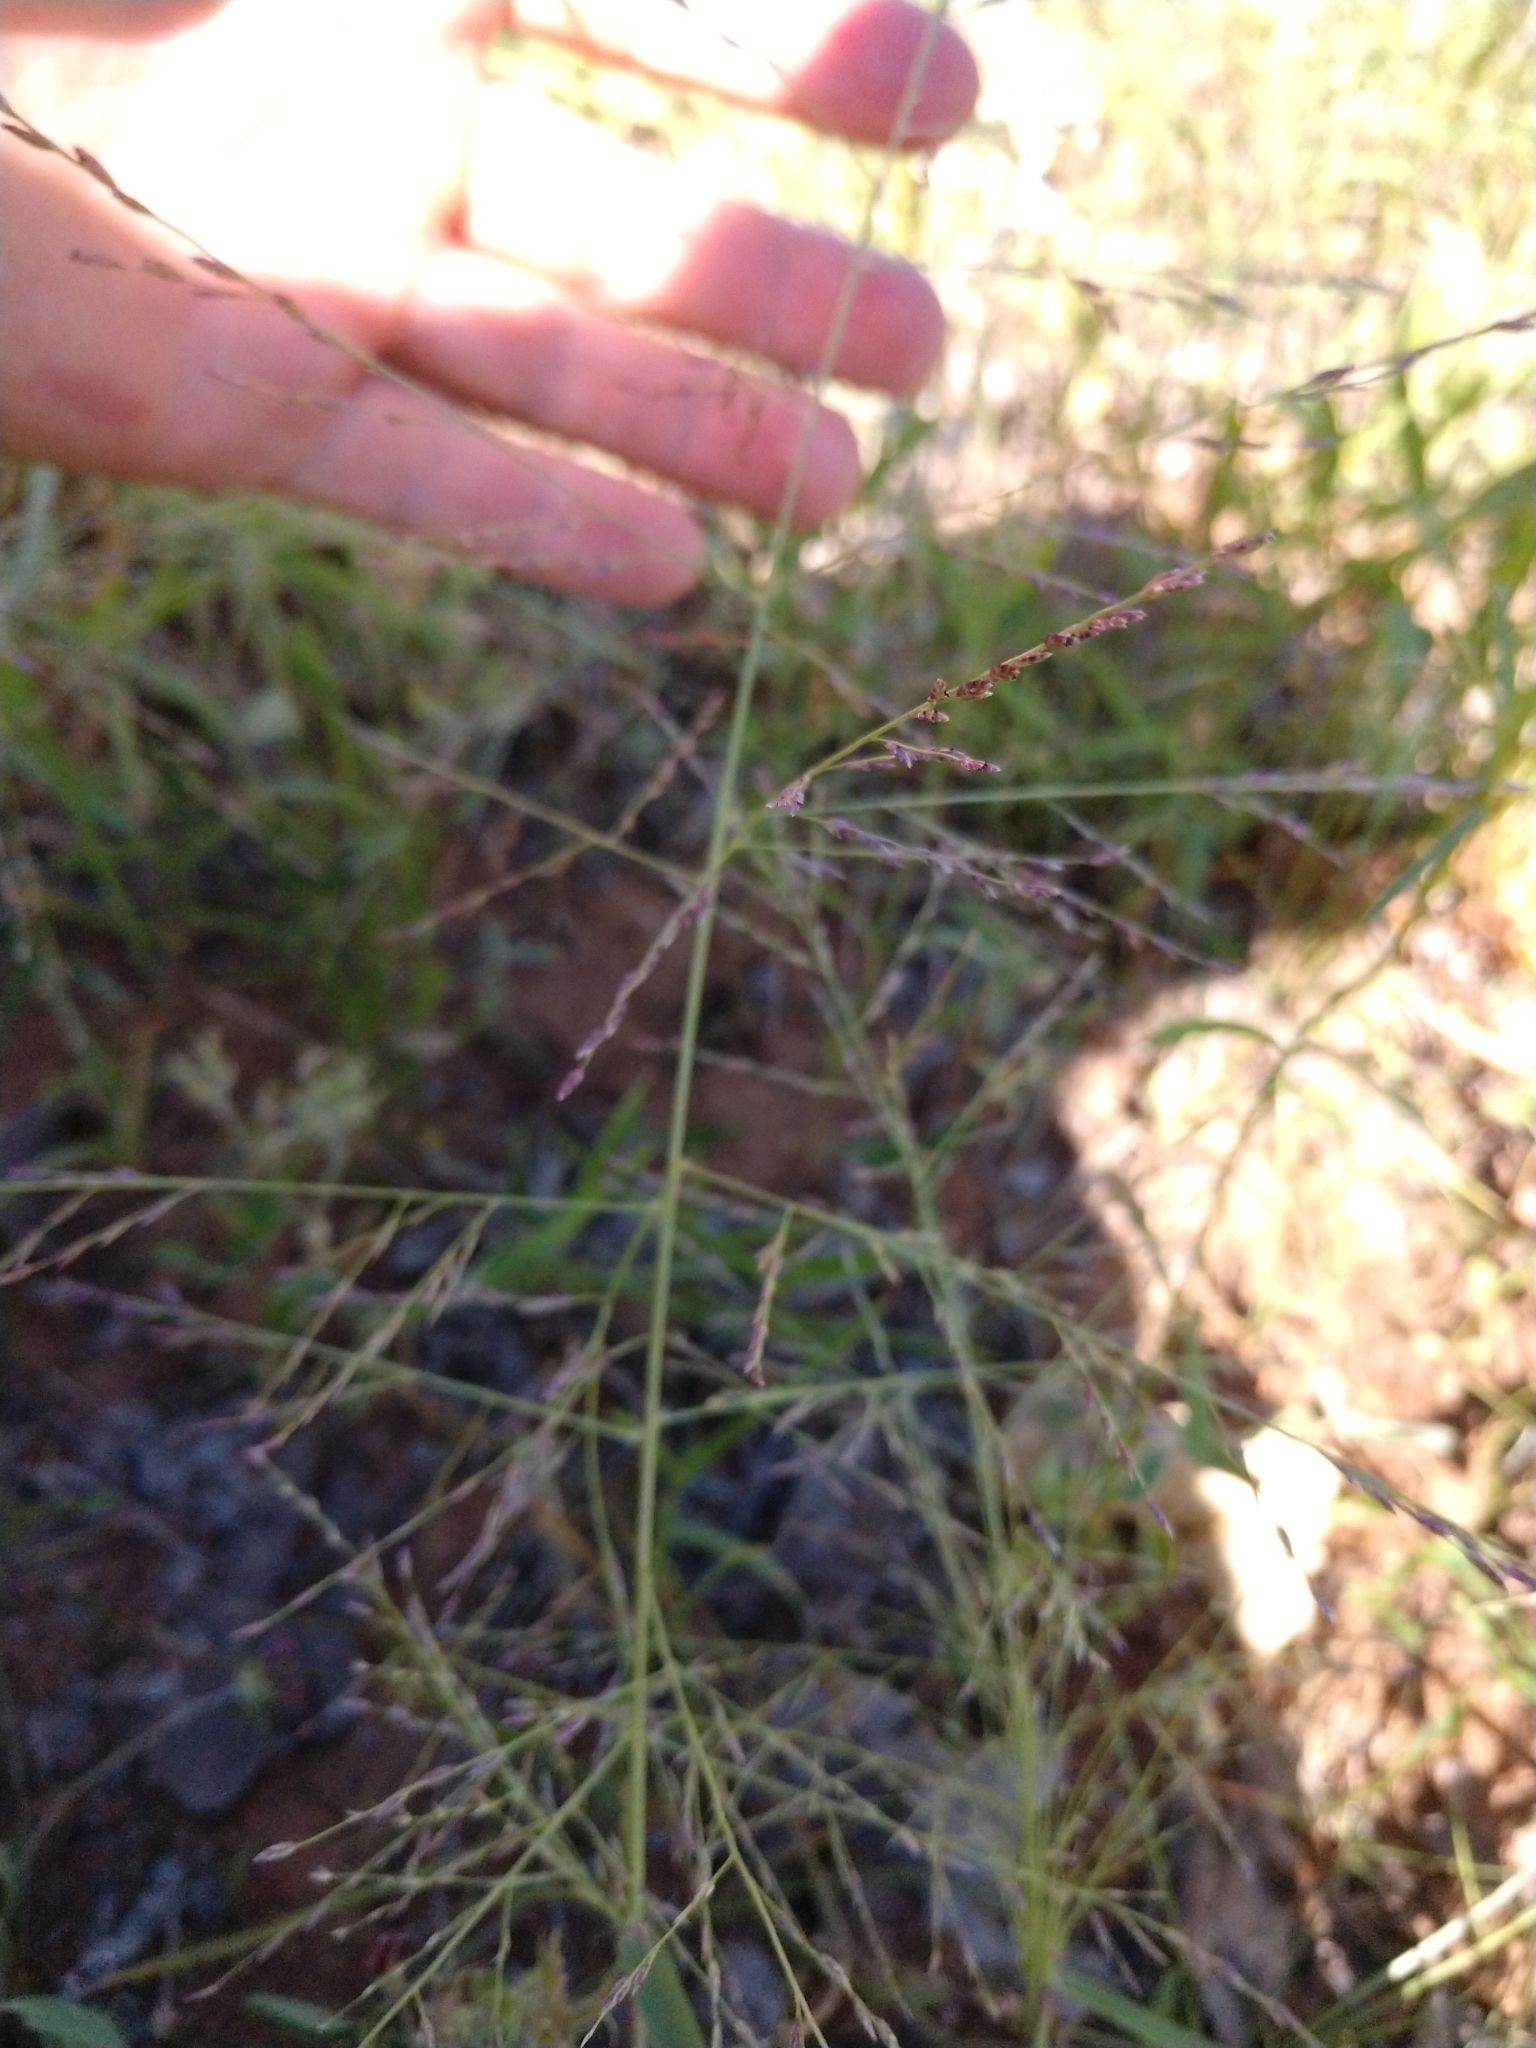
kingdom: Plantae
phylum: Tracheophyta
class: Liliopsida
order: Poales
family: Poaceae
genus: Eragrostis
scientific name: Eragrostis curtipedicellata
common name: Gummy love grass
